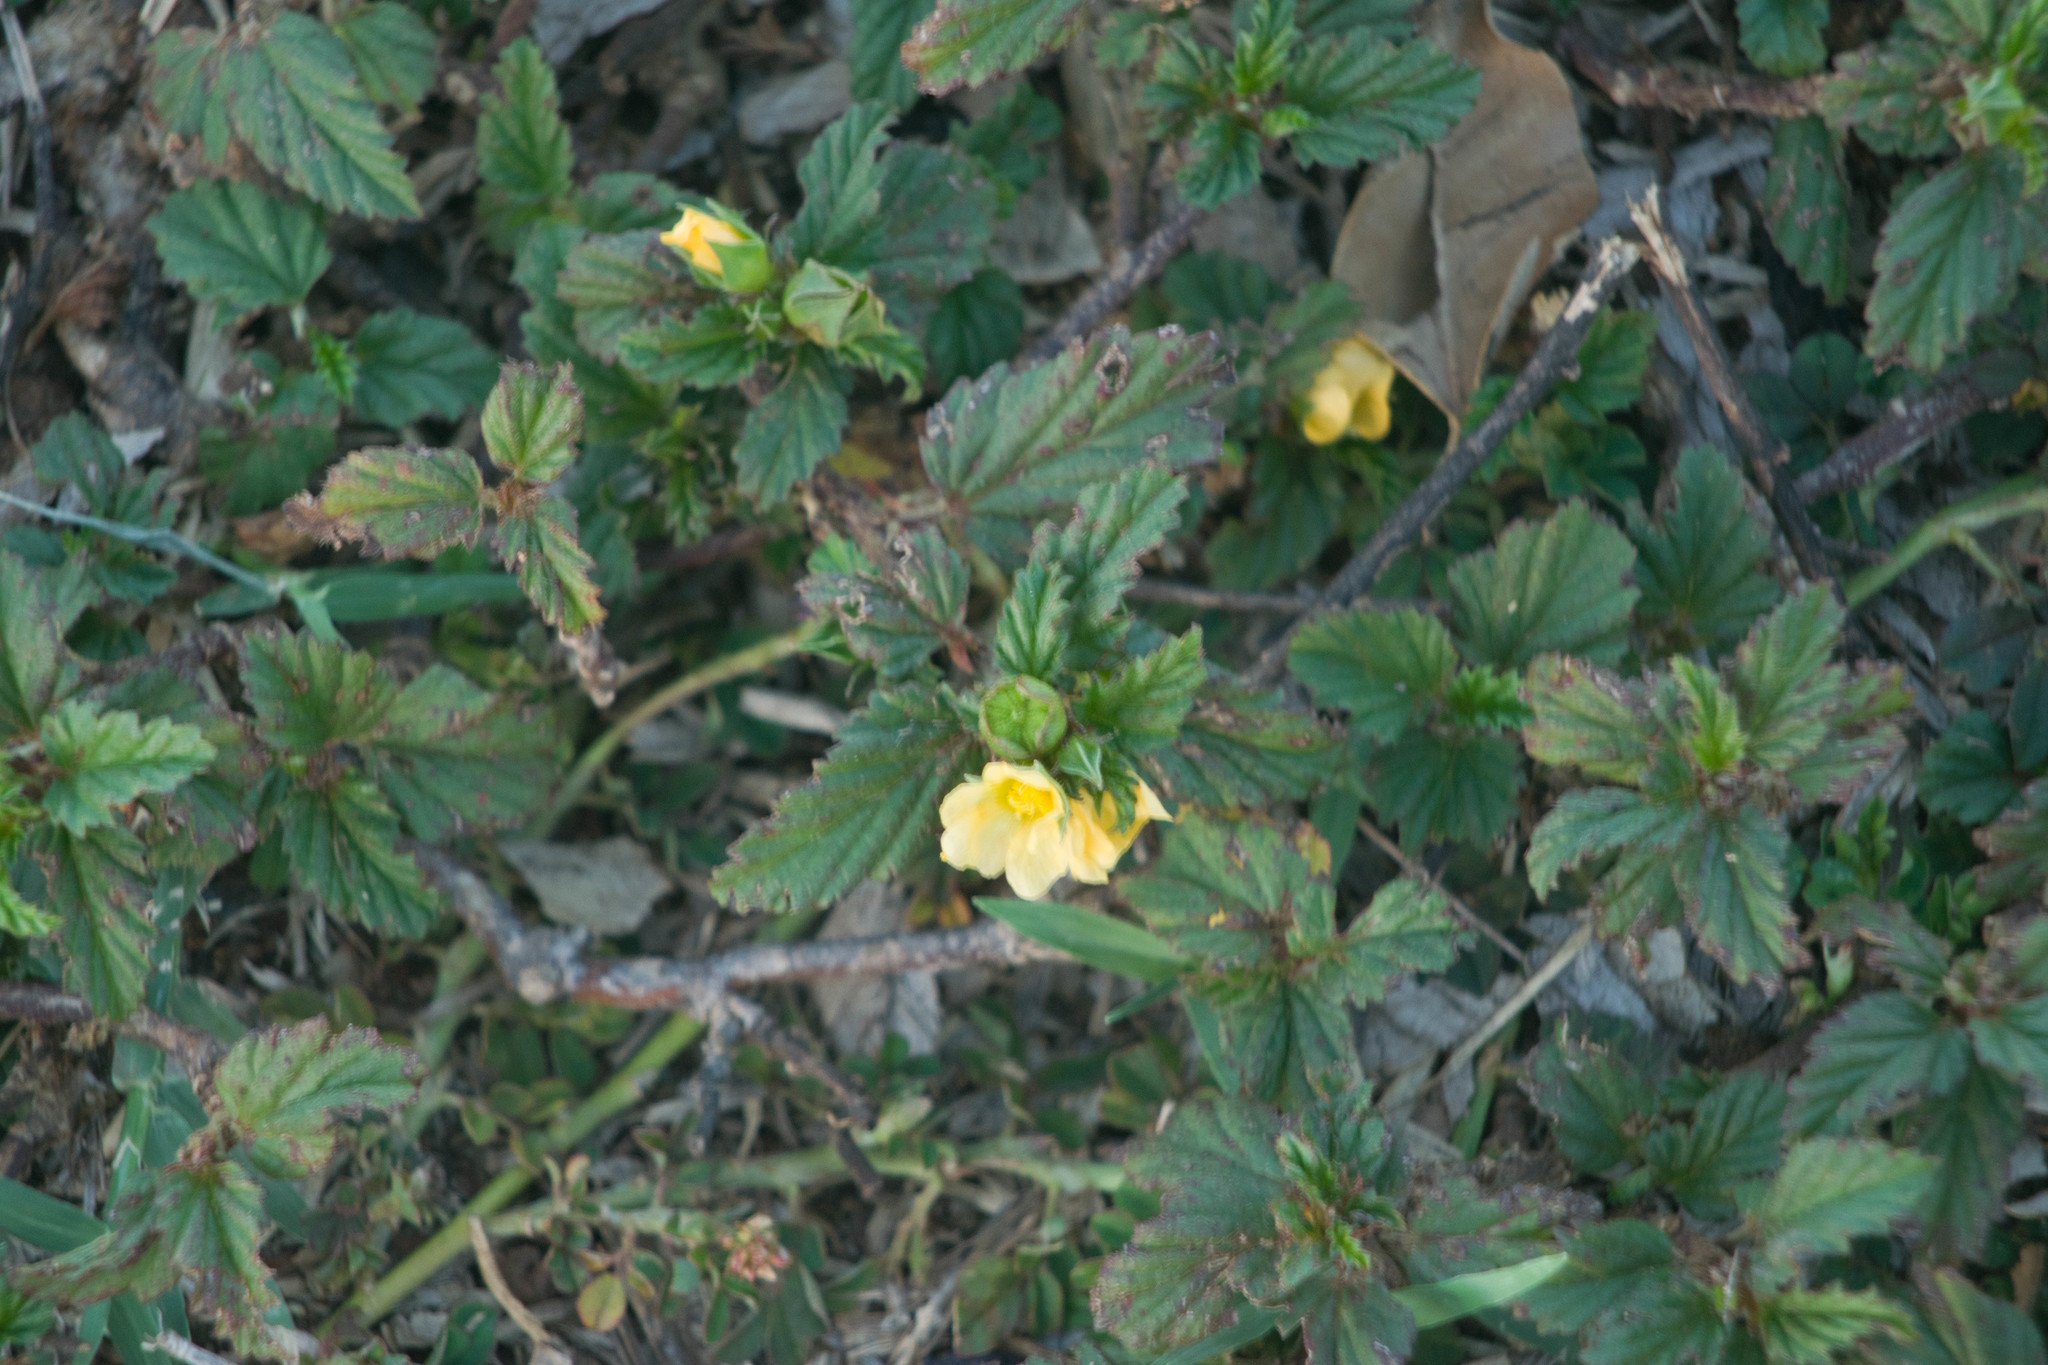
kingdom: Plantae
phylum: Tracheophyta
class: Magnoliopsida
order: Malvales
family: Malvaceae
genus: Malvastrum
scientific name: Malvastrum coromandelianum
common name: Threelobe false mallow
